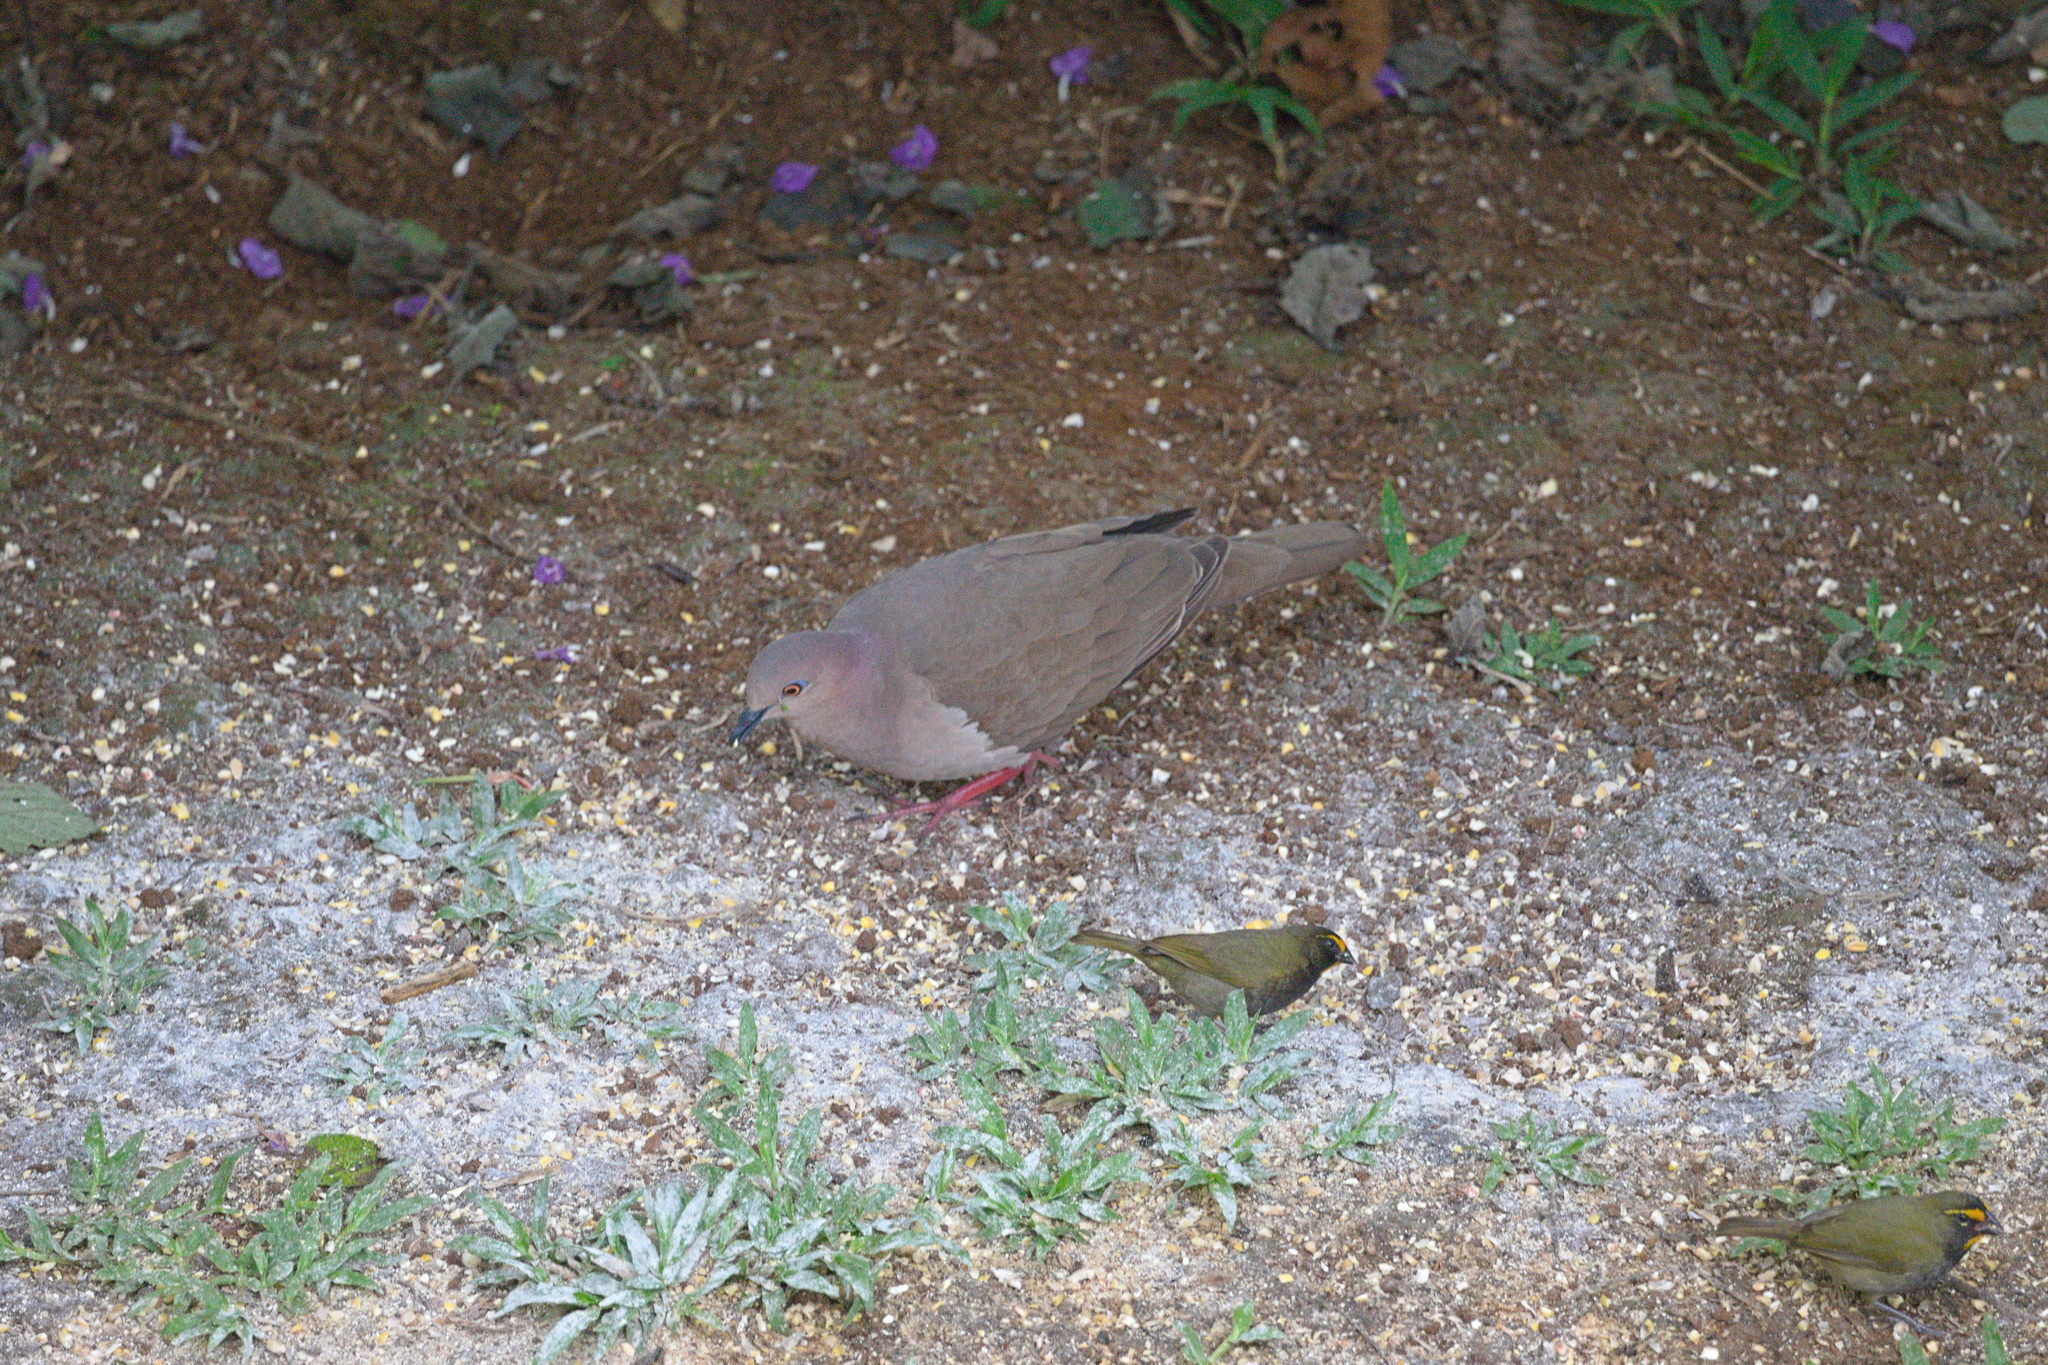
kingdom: Animalia
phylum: Chordata
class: Aves
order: Columbiformes
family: Columbidae
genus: Leptotila
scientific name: Leptotila verreauxi
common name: White-tipped dove
